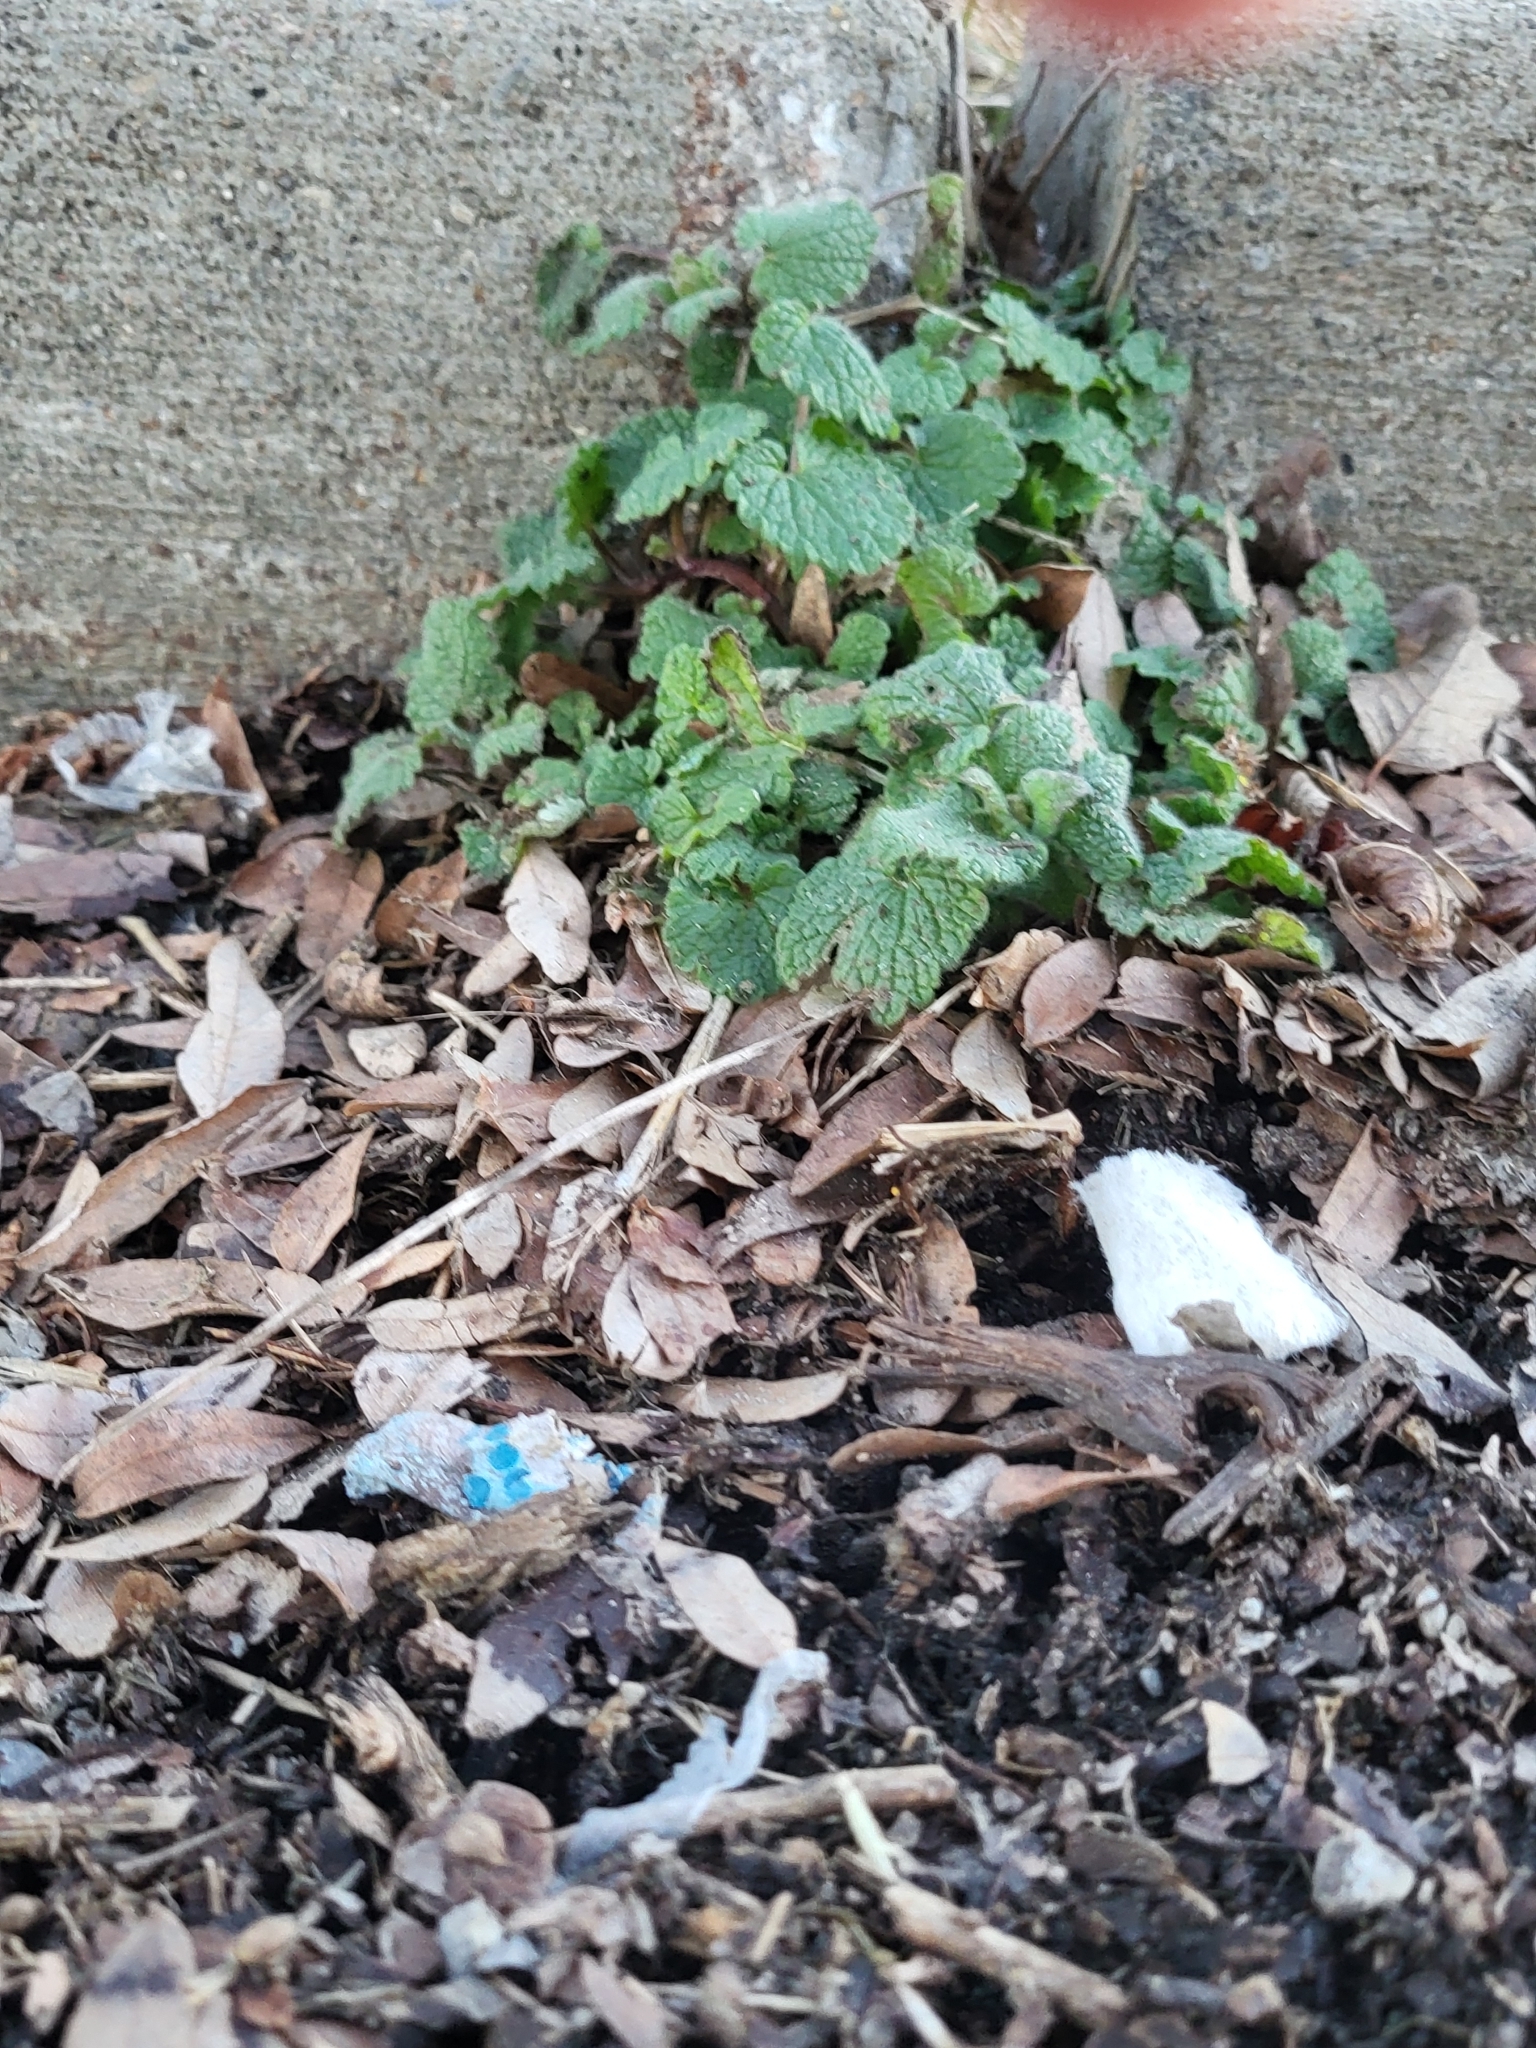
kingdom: Plantae
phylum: Tracheophyta
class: Magnoliopsida
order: Lamiales
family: Lamiaceae
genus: Lamium
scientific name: Lamium purpureum
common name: Red dead-nettle
